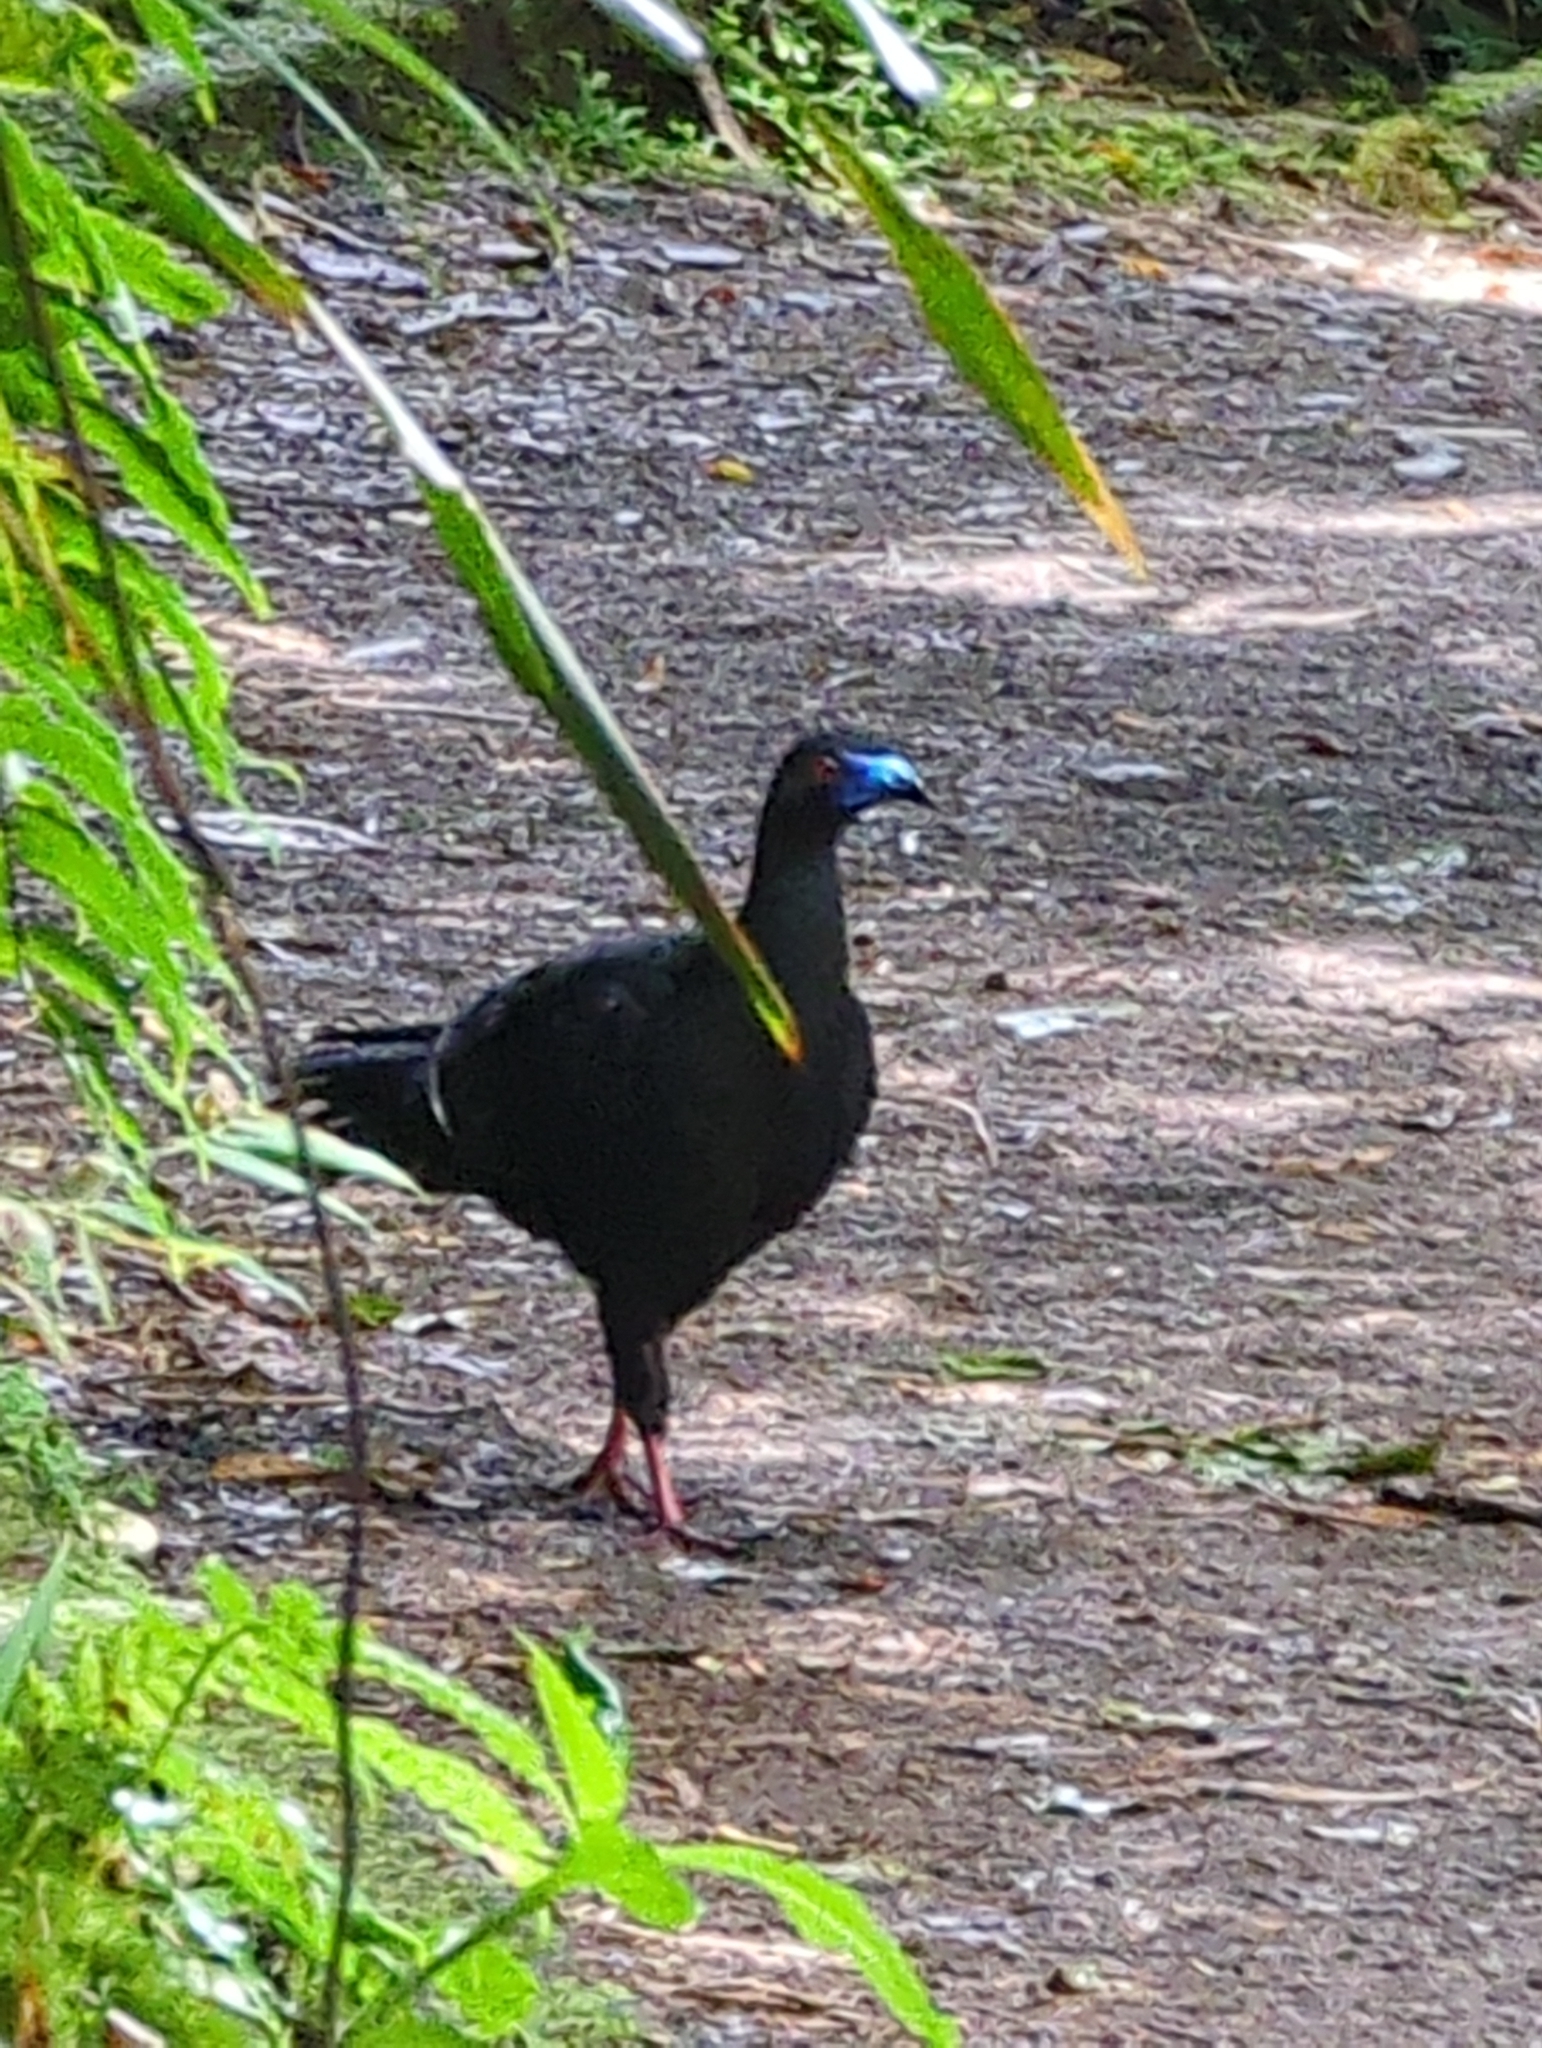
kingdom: Animalia
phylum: Chordata
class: Aves
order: Galliformes
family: Cracidae
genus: Chamaepetes
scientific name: Chamaepetes unicolor
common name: Black guan
